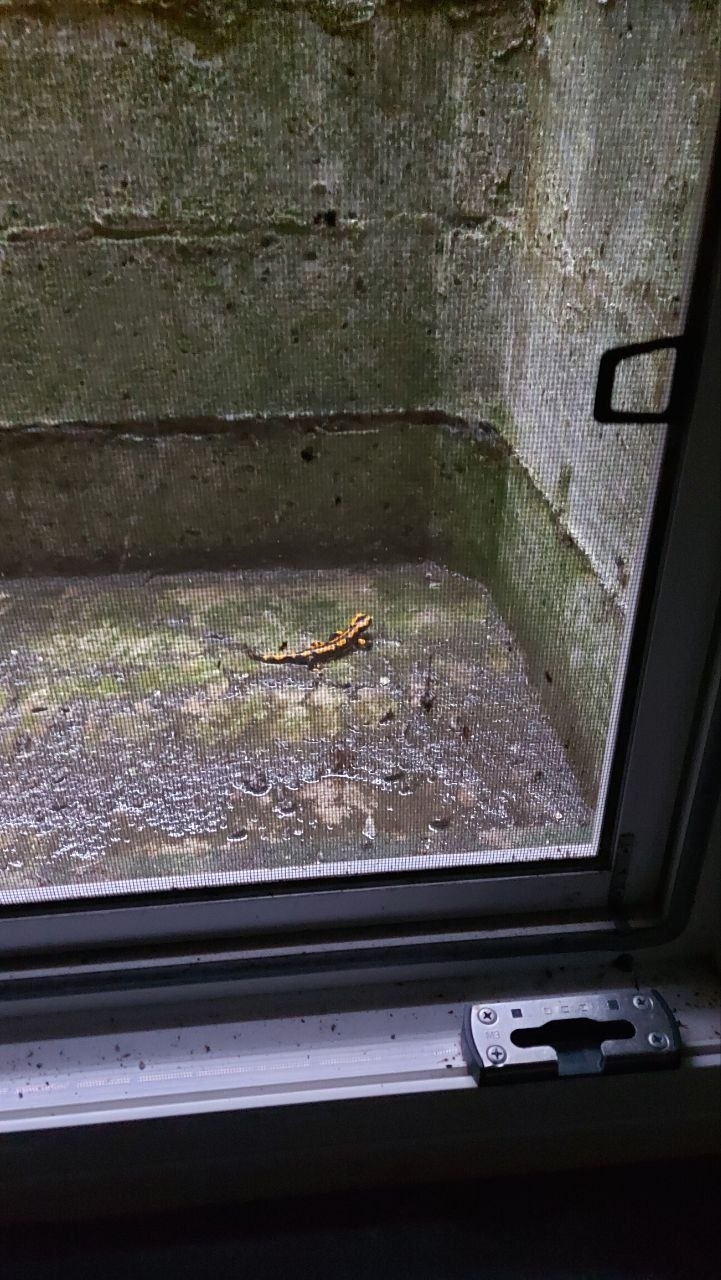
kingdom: Animalia
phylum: Chordata
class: Amphibia
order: Caudata
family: Salamandridae
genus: Salamandra
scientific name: Salamandra salamandra
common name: Fire salamander
